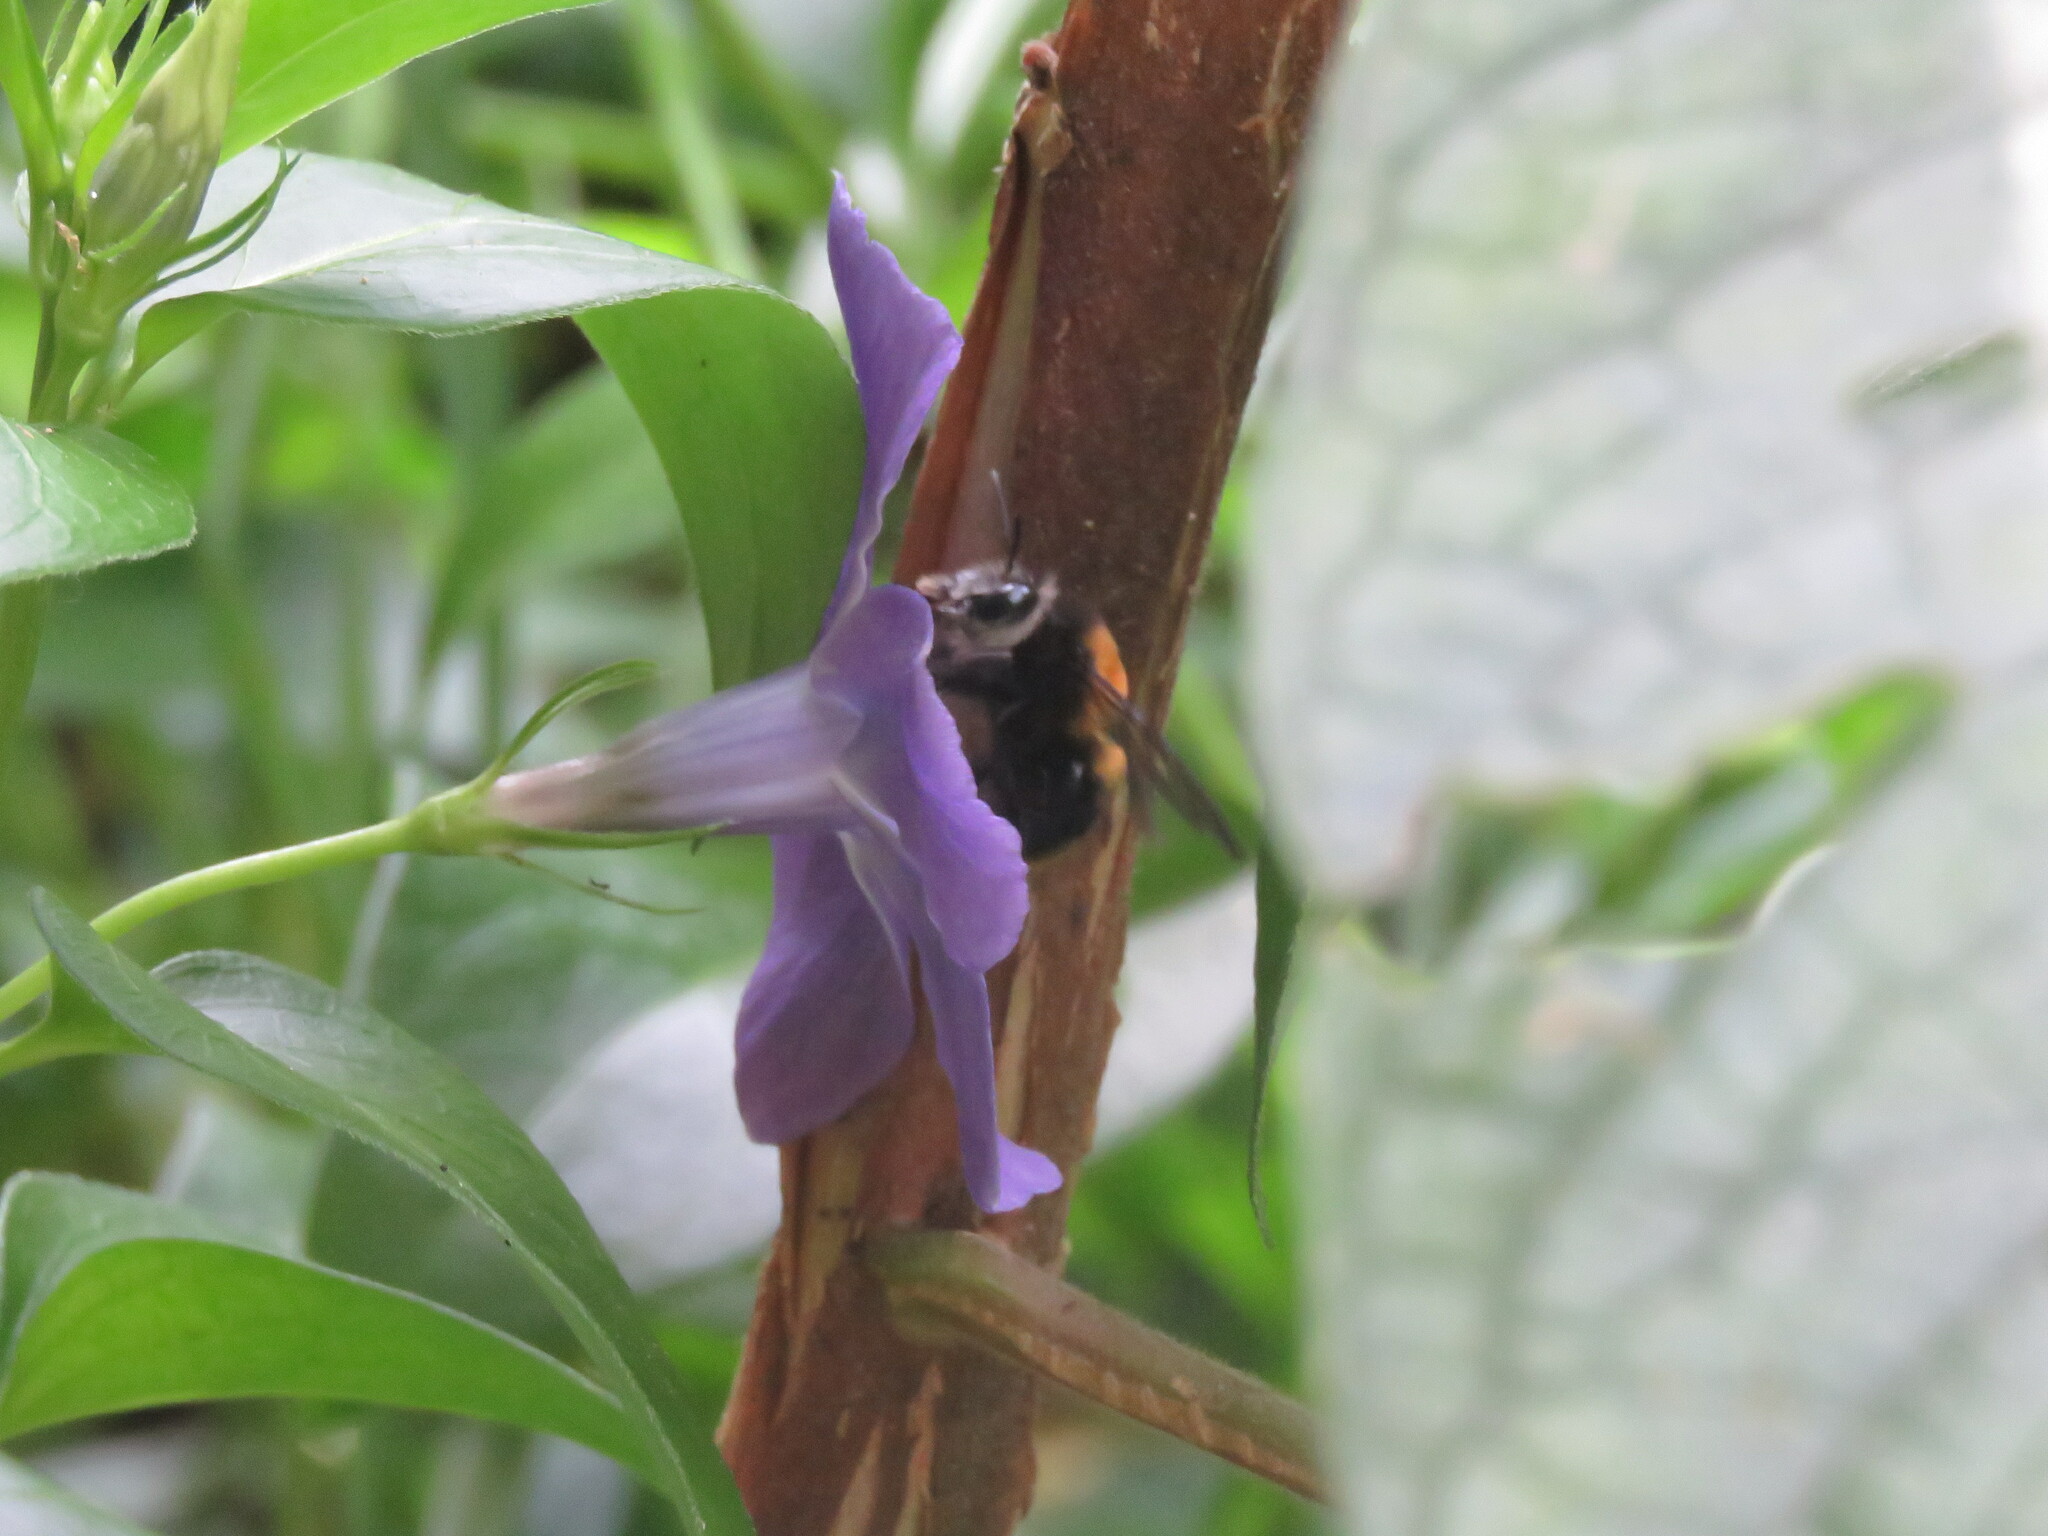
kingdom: Animalia
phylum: Arthropoda
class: Insecta
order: Hymenoptera
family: Apidae
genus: Thygater
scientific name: Thygater aethiops
